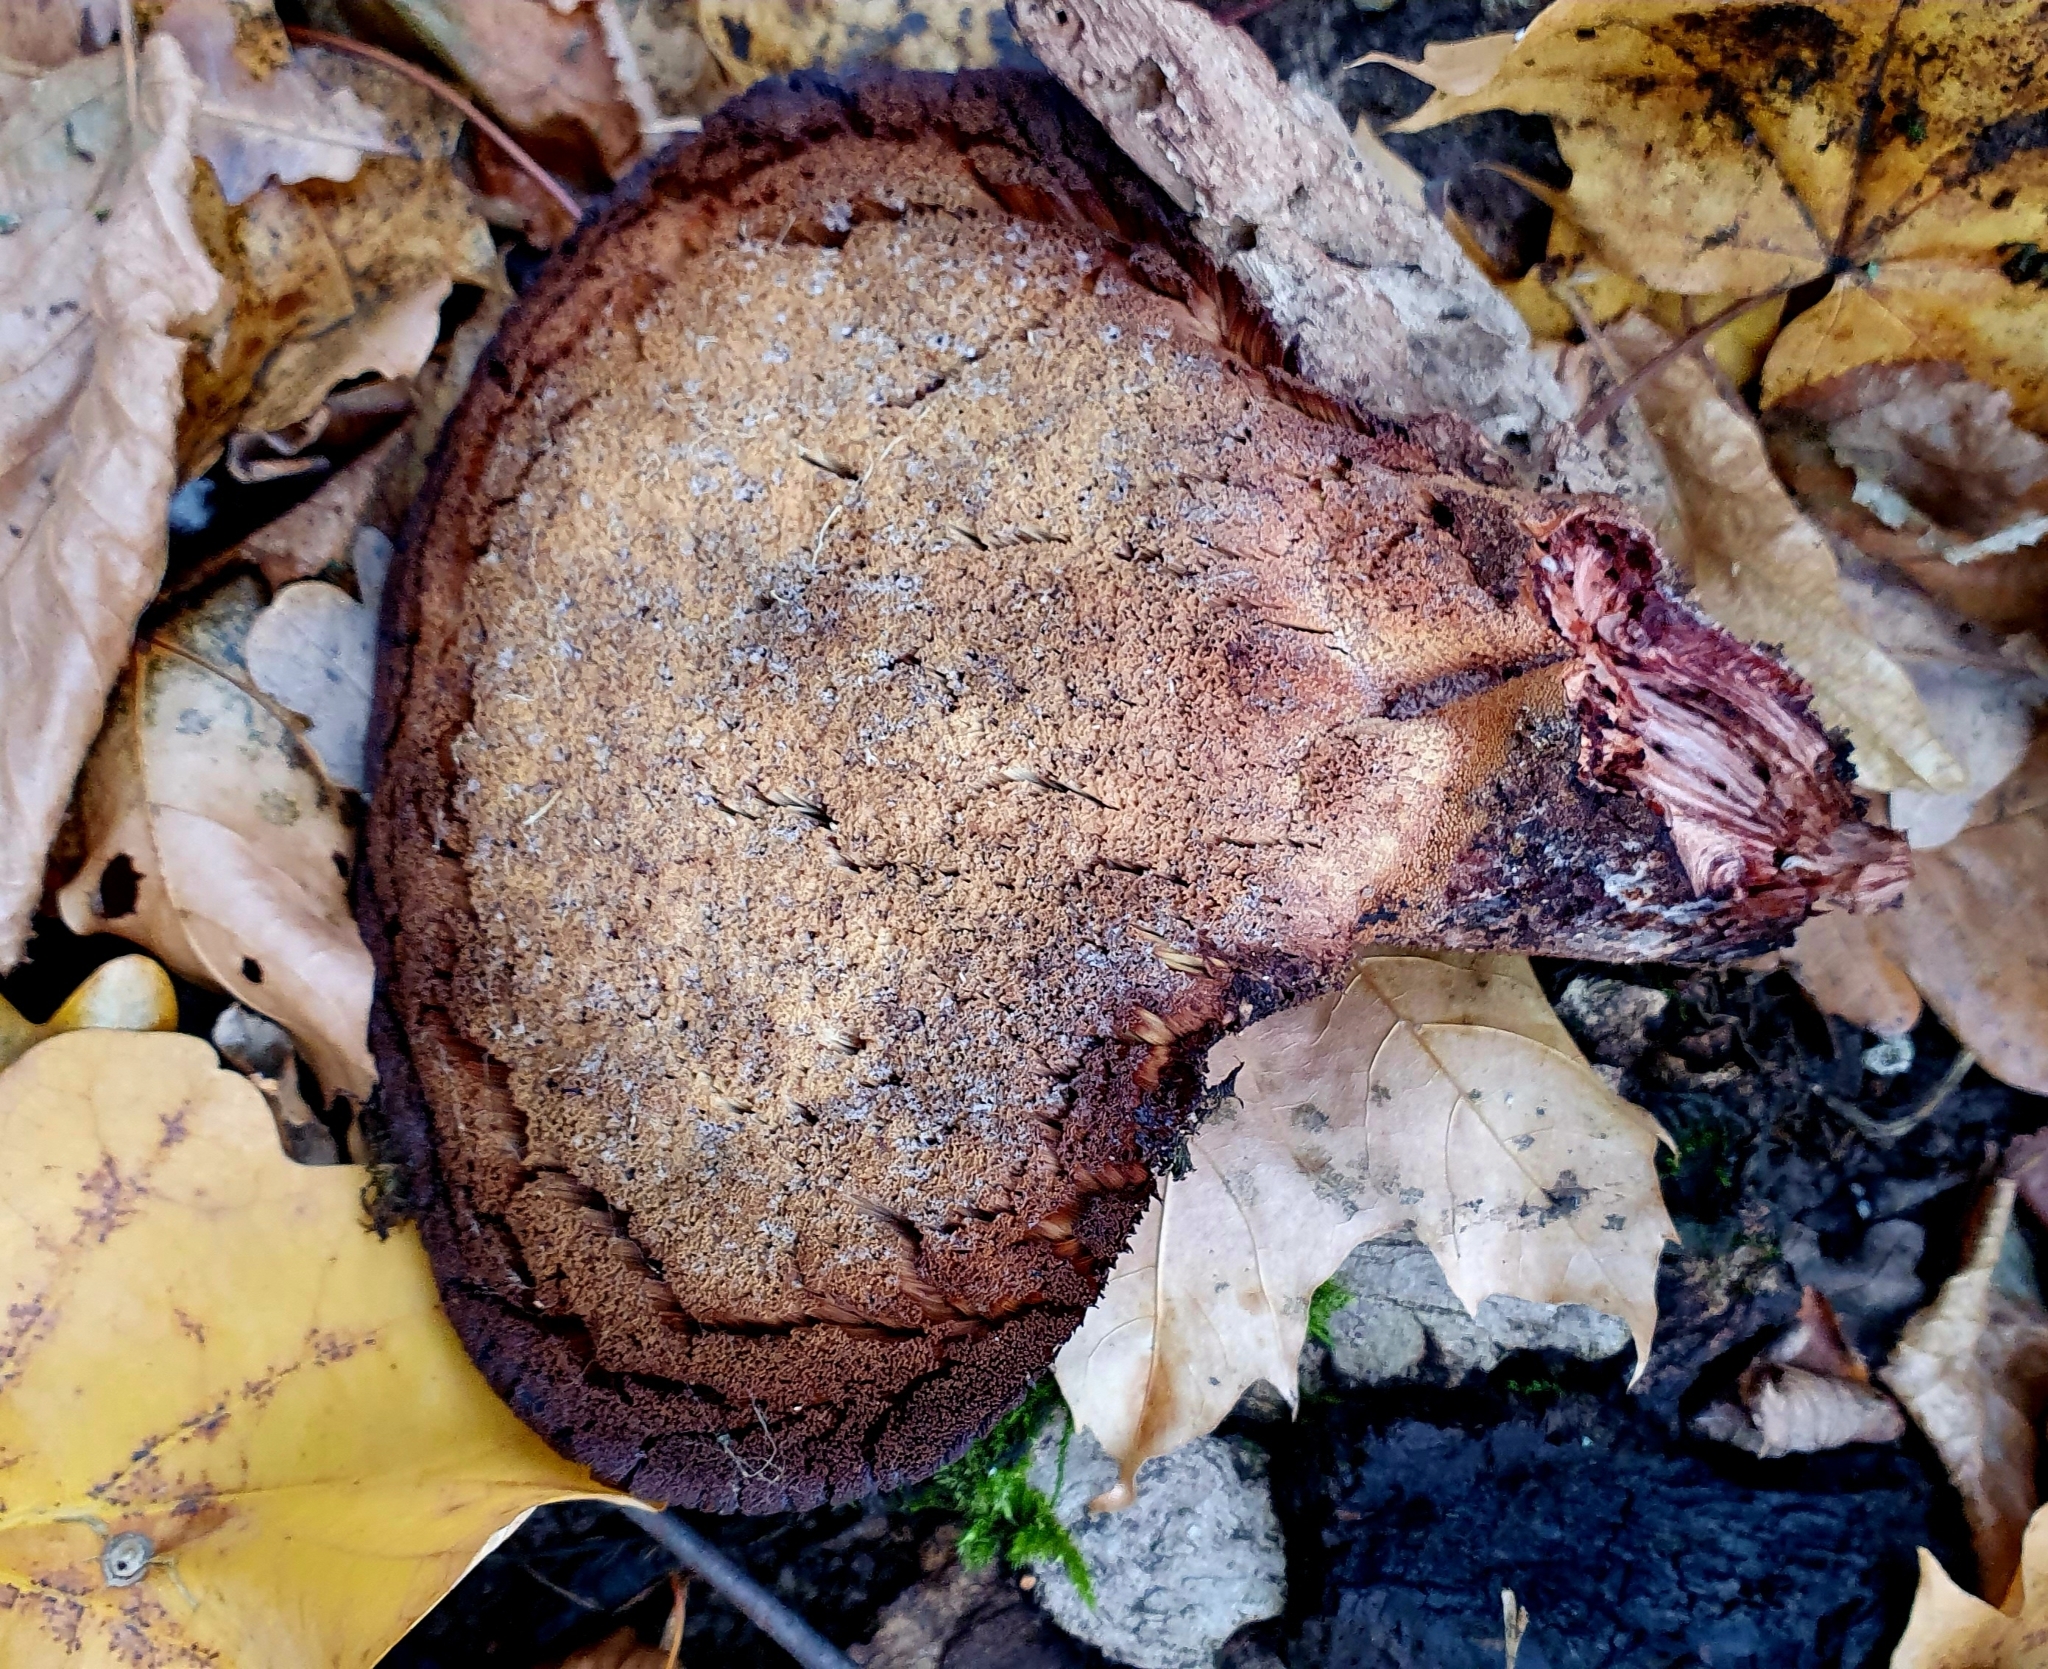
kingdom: Fungi
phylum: Basidiomycota
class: Agaricomycetes
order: Agaricales
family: Fistulinaceae
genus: Fistulina
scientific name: Fistulina hepatica
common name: Beef-steak fungus
